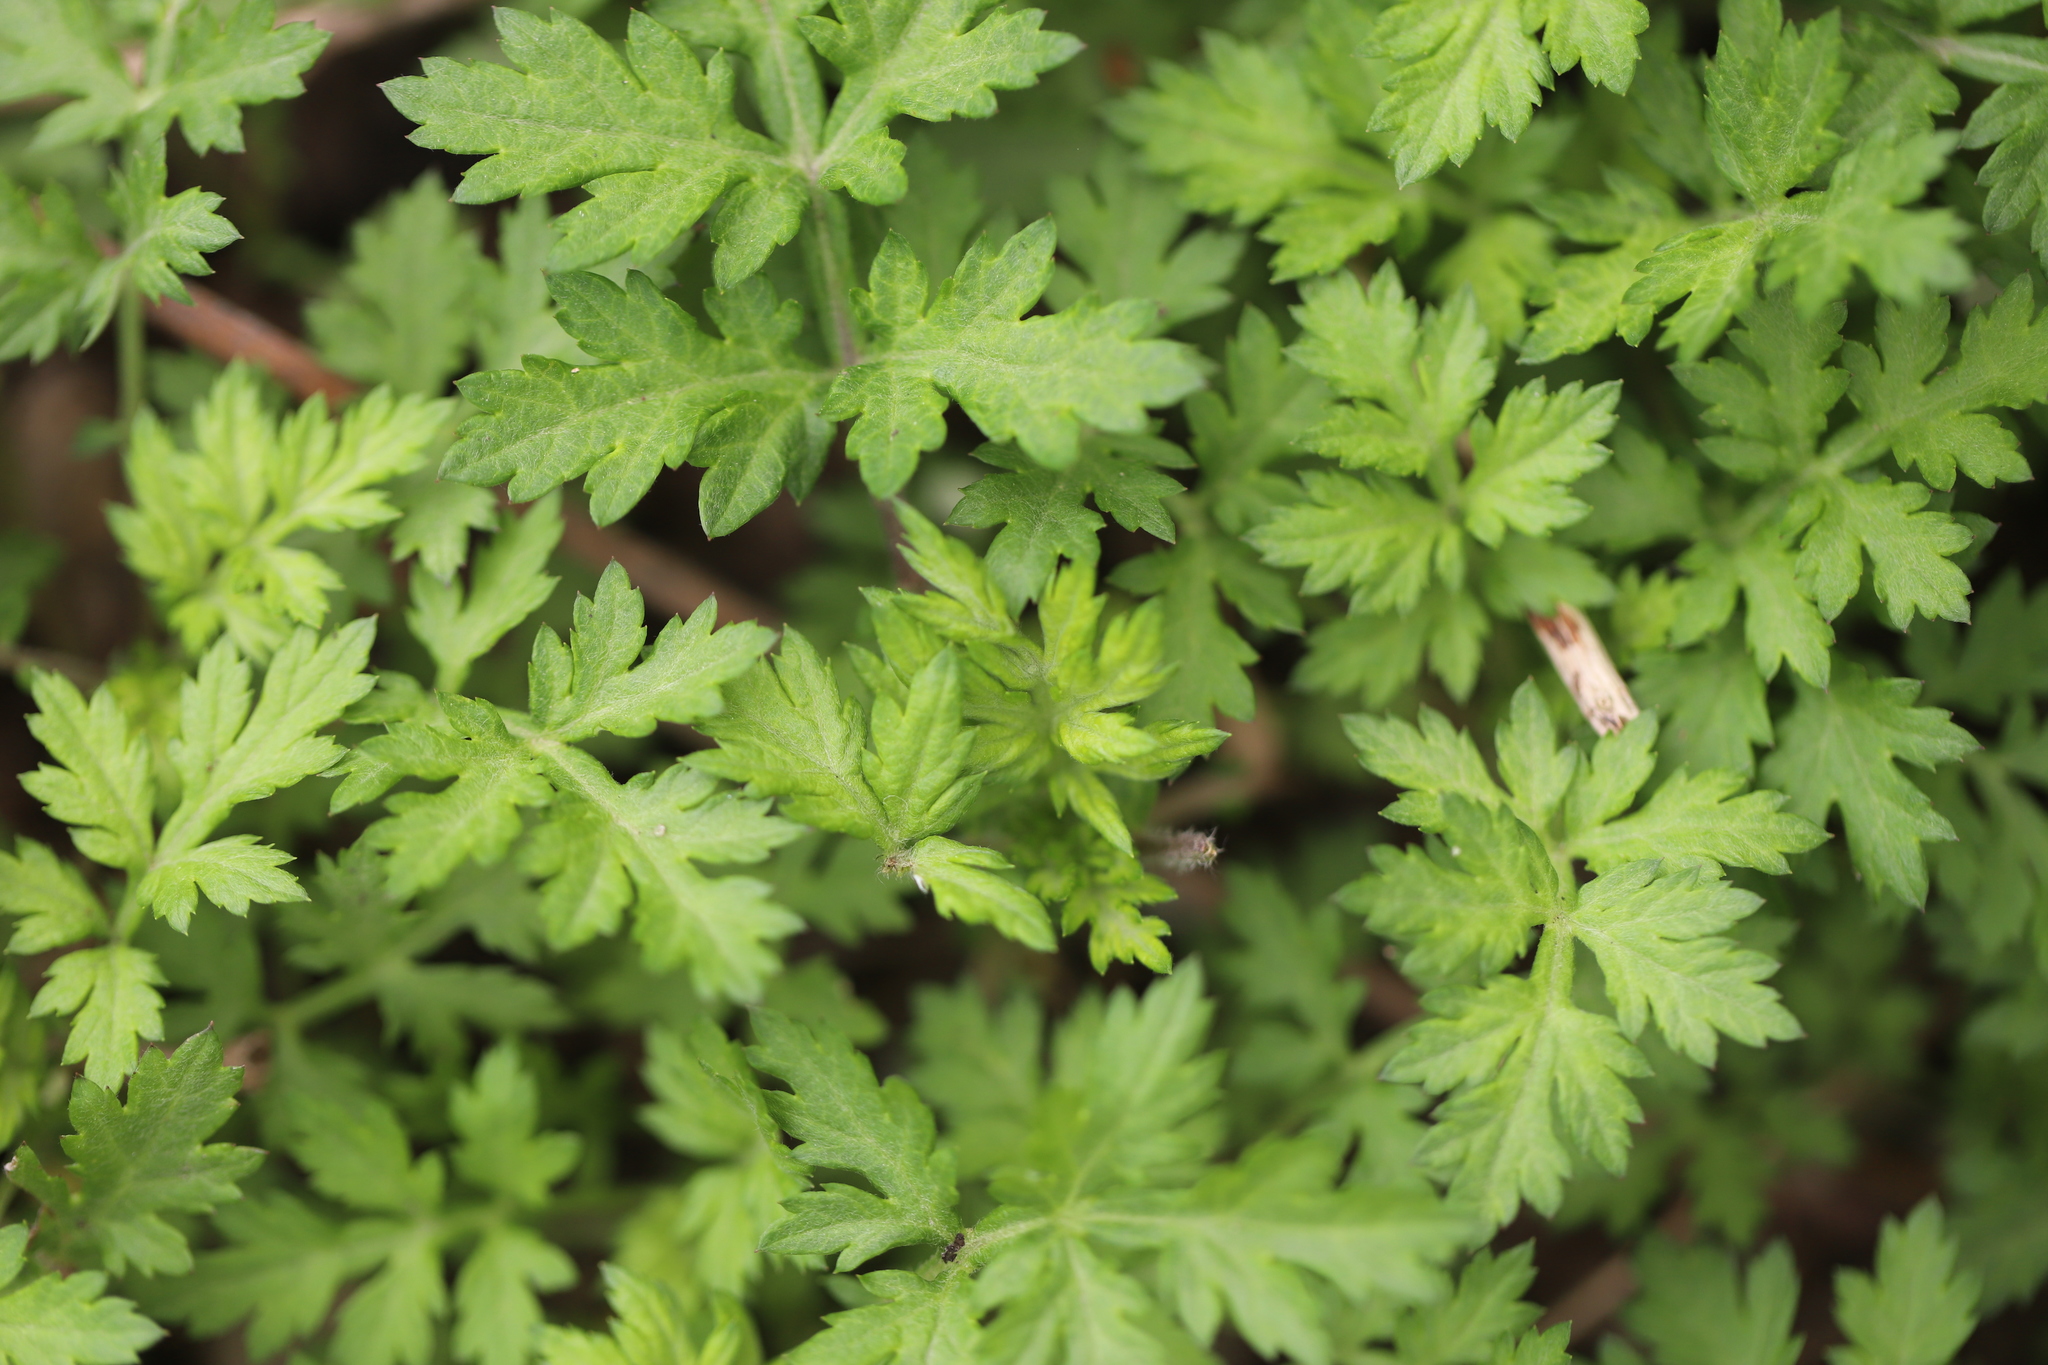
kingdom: Plantae
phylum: Tracheophyta
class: Magnoliopsida
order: Asterales
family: Asteraceae
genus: Artemisia
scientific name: Artemisia vulgaris
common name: Mugwort
